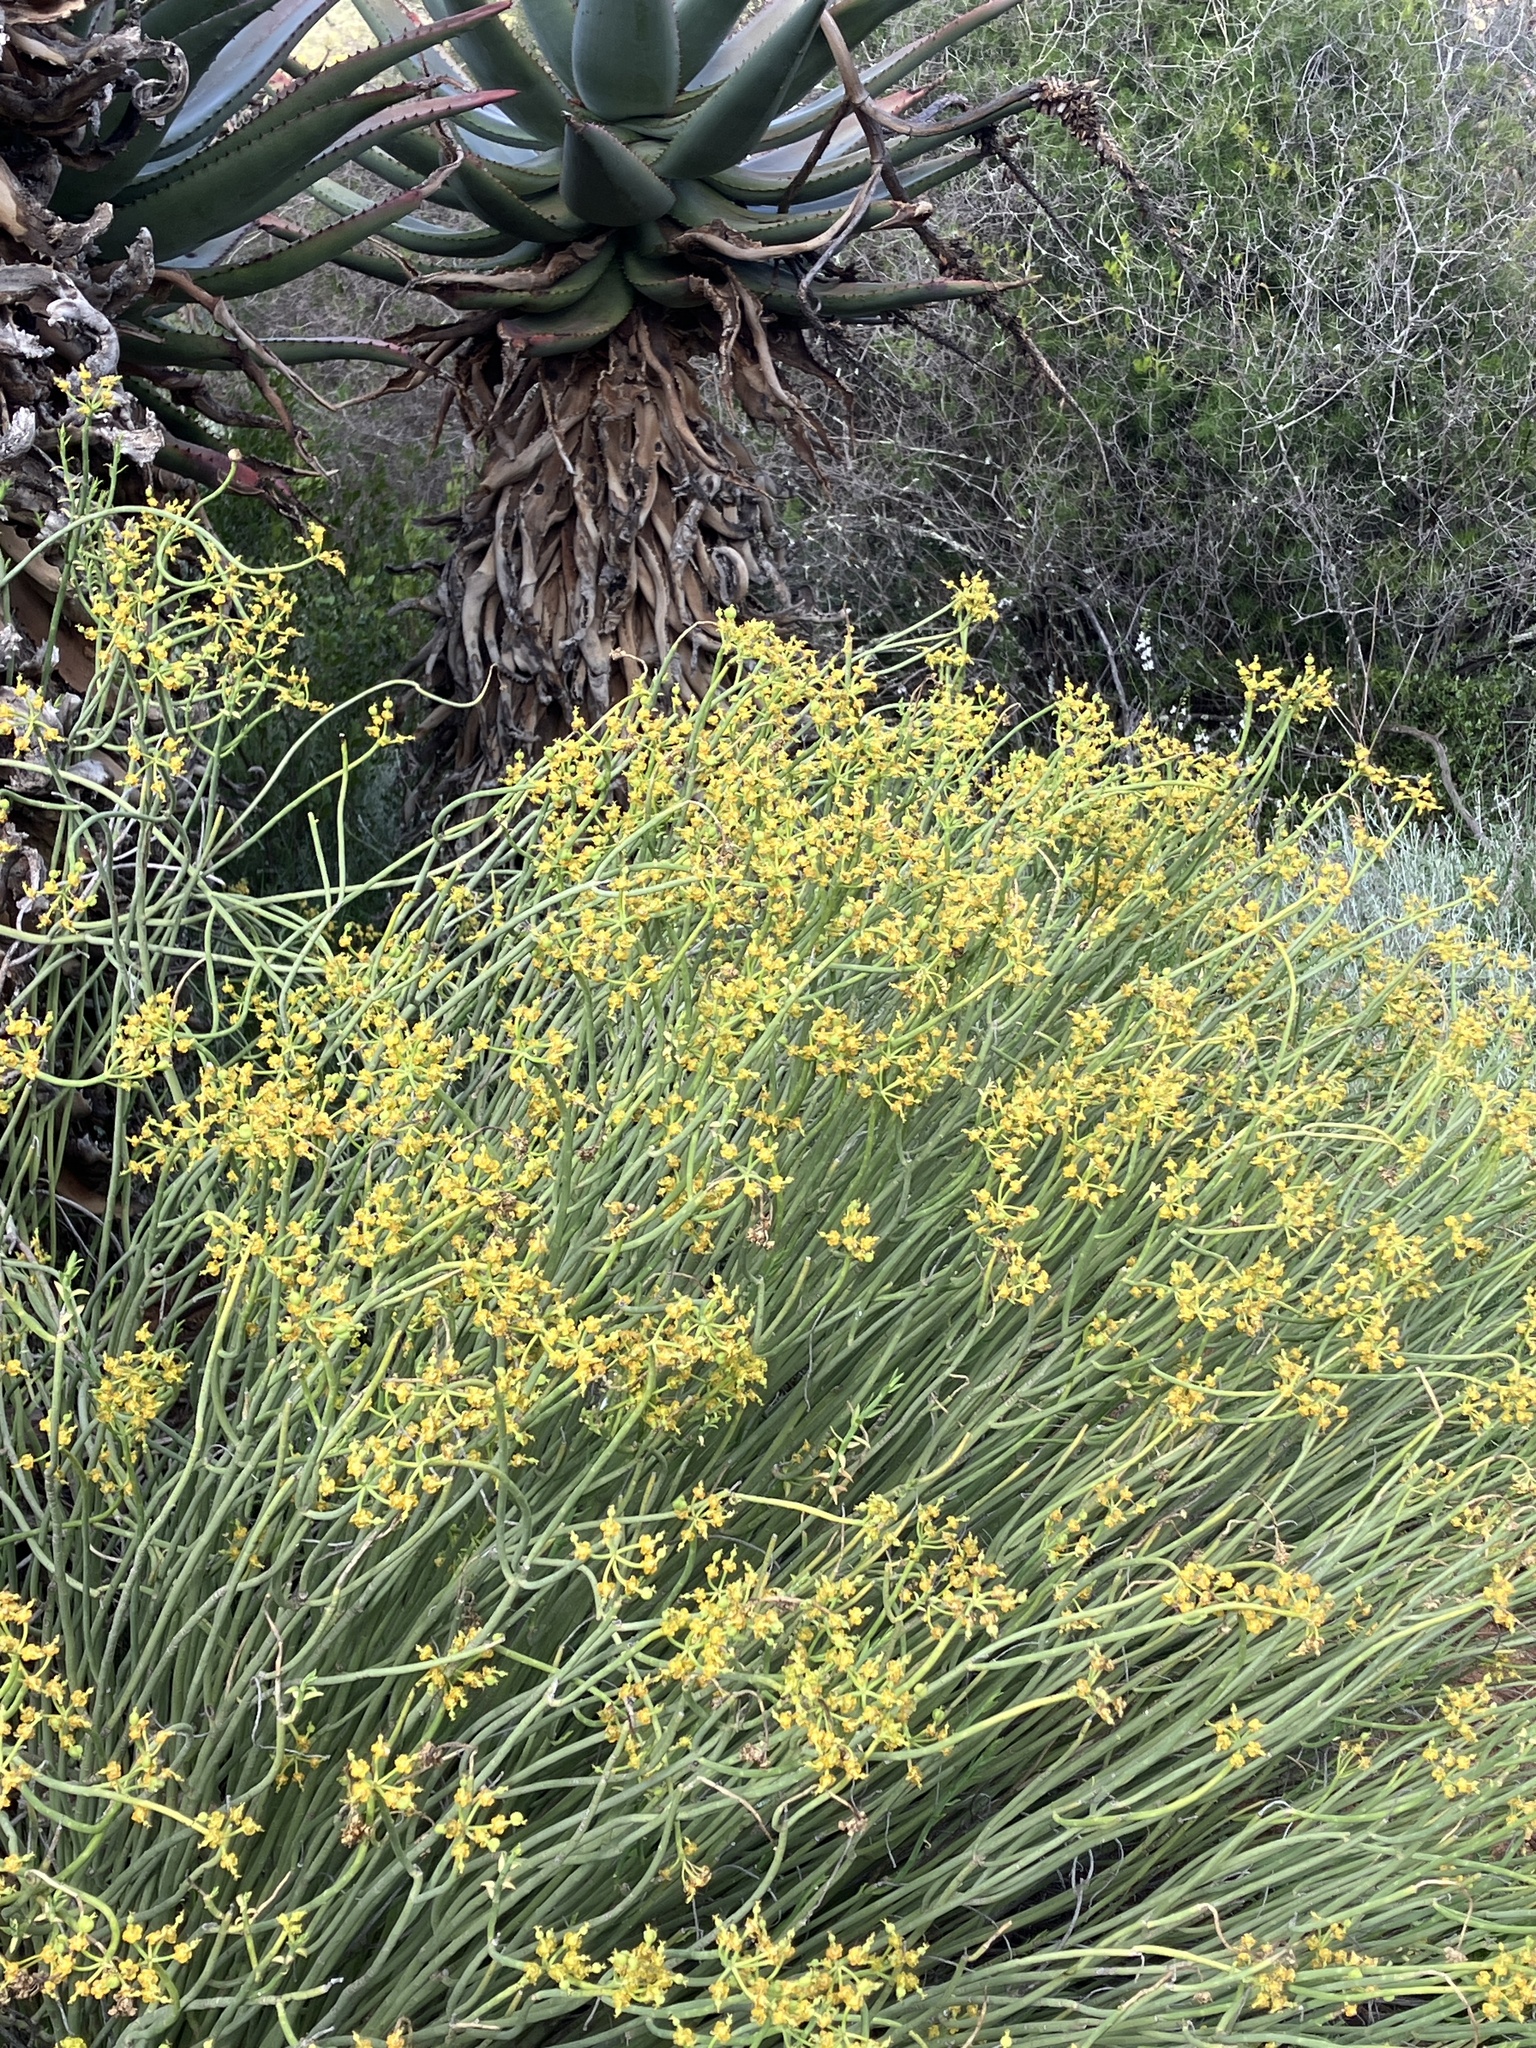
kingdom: Plantae
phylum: Tracheophyta
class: Magnoliopsida
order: Malpighiales
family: Euphorbiaceae
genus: Euphorbia
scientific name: Euphorbia mauritanica
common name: Jackal's-food
